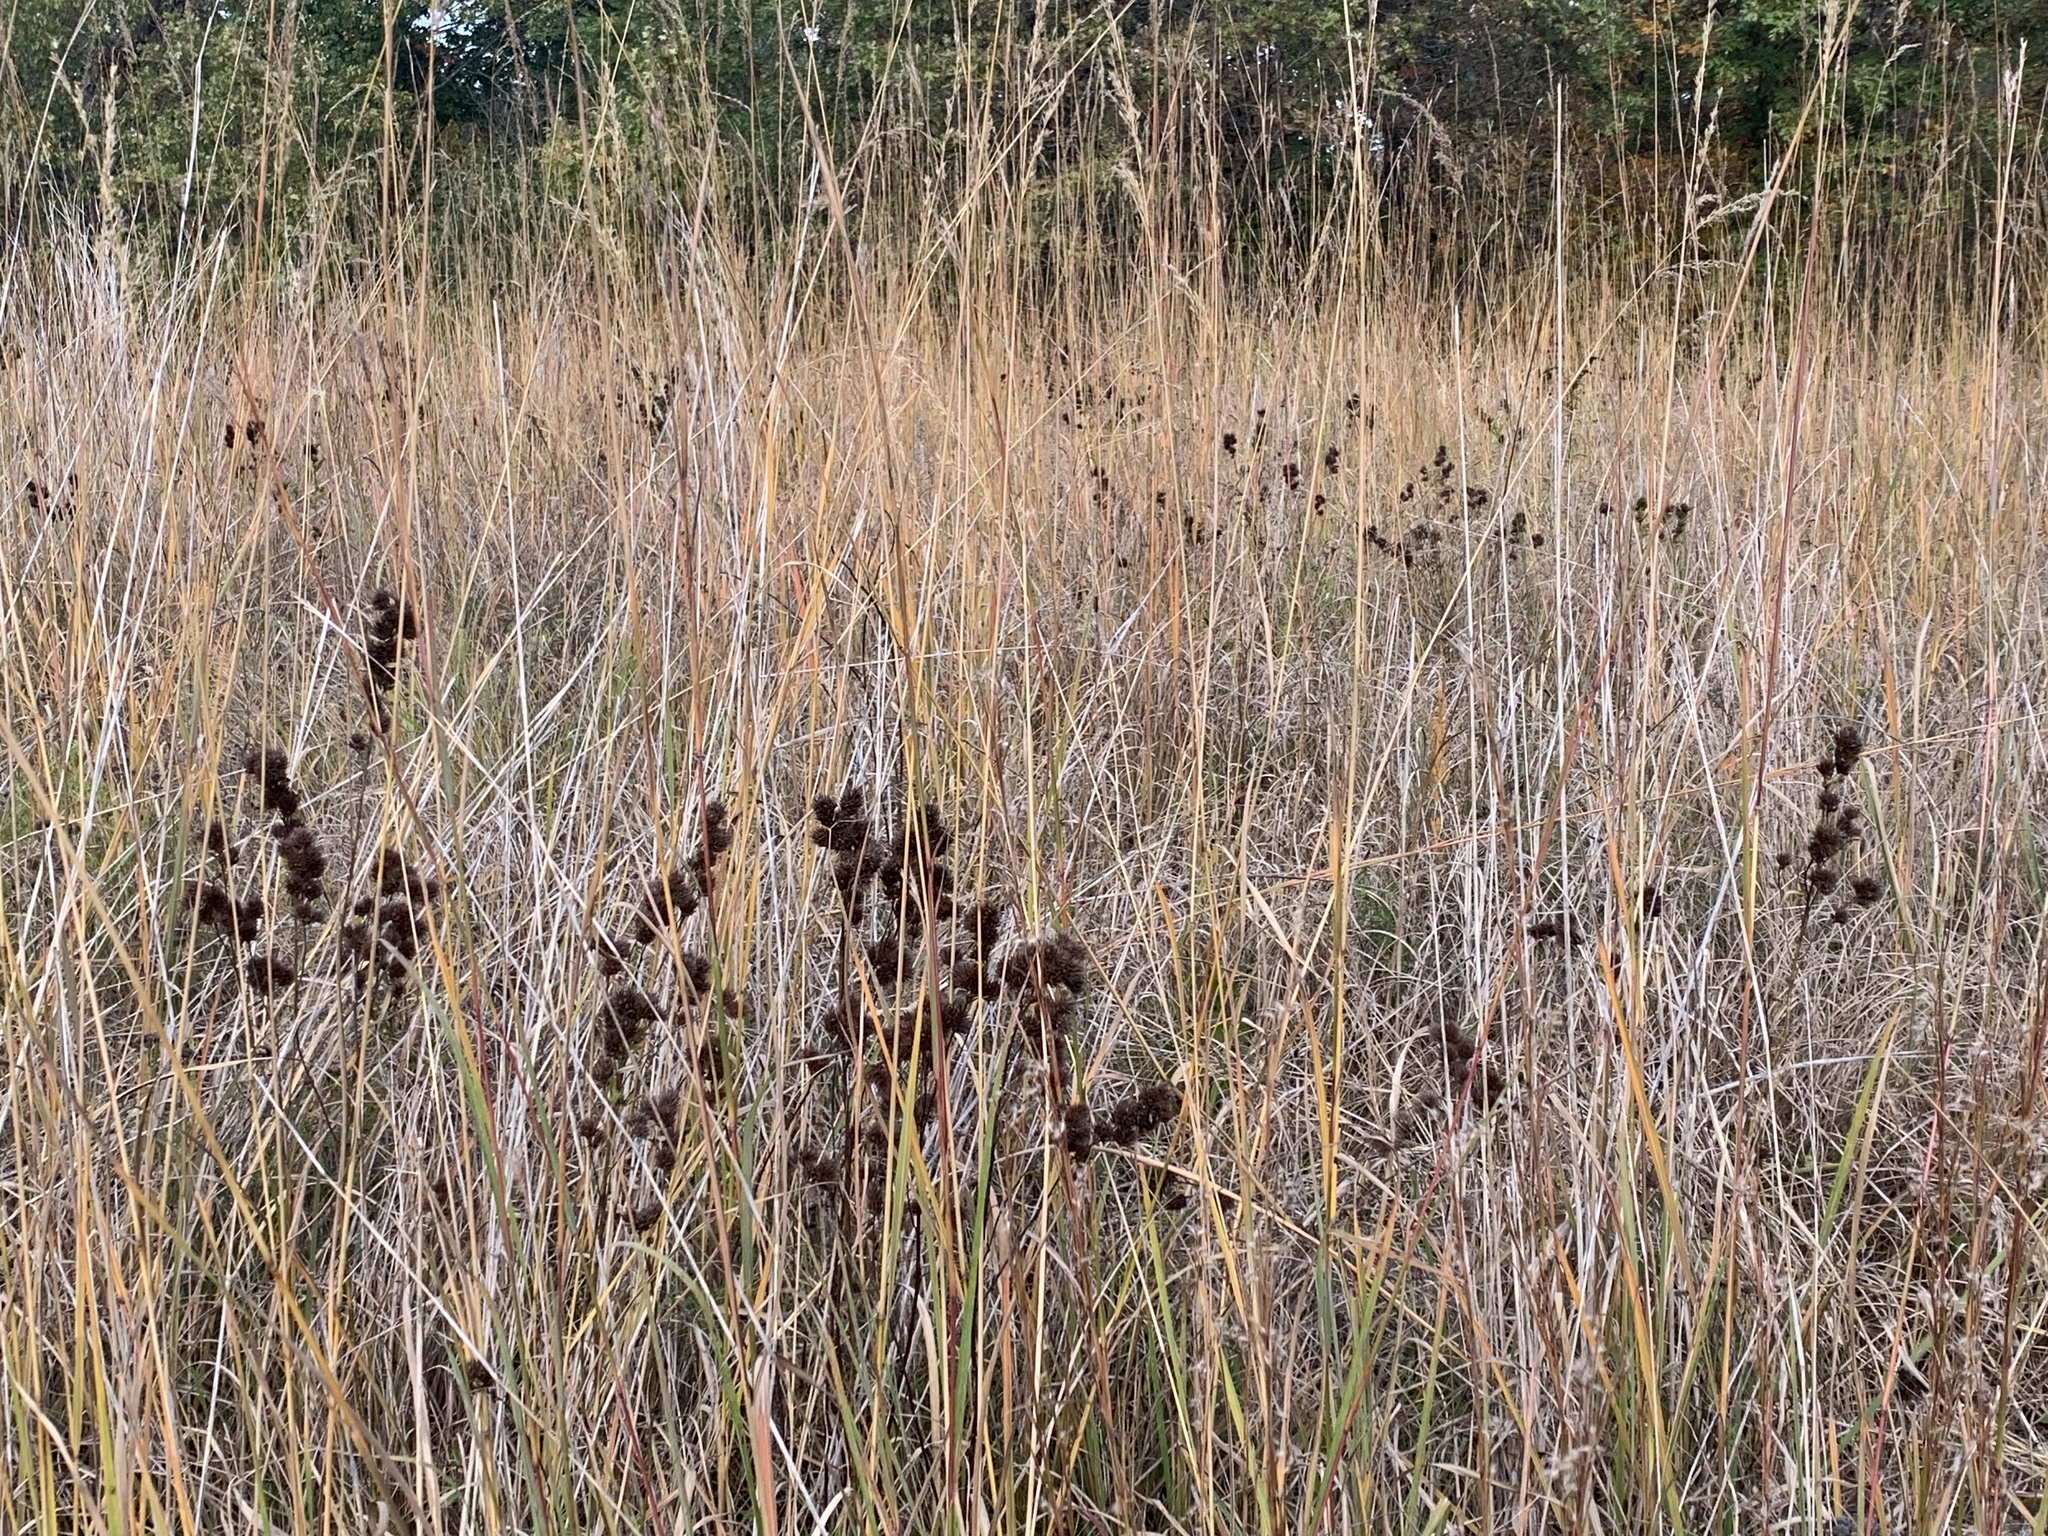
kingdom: Plantae
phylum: Tracheophyta
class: Magnoliopsida
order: Fabales
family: Fabaceae
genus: Lespedeza
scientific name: Lespedeza capitata
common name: Dusty clover
